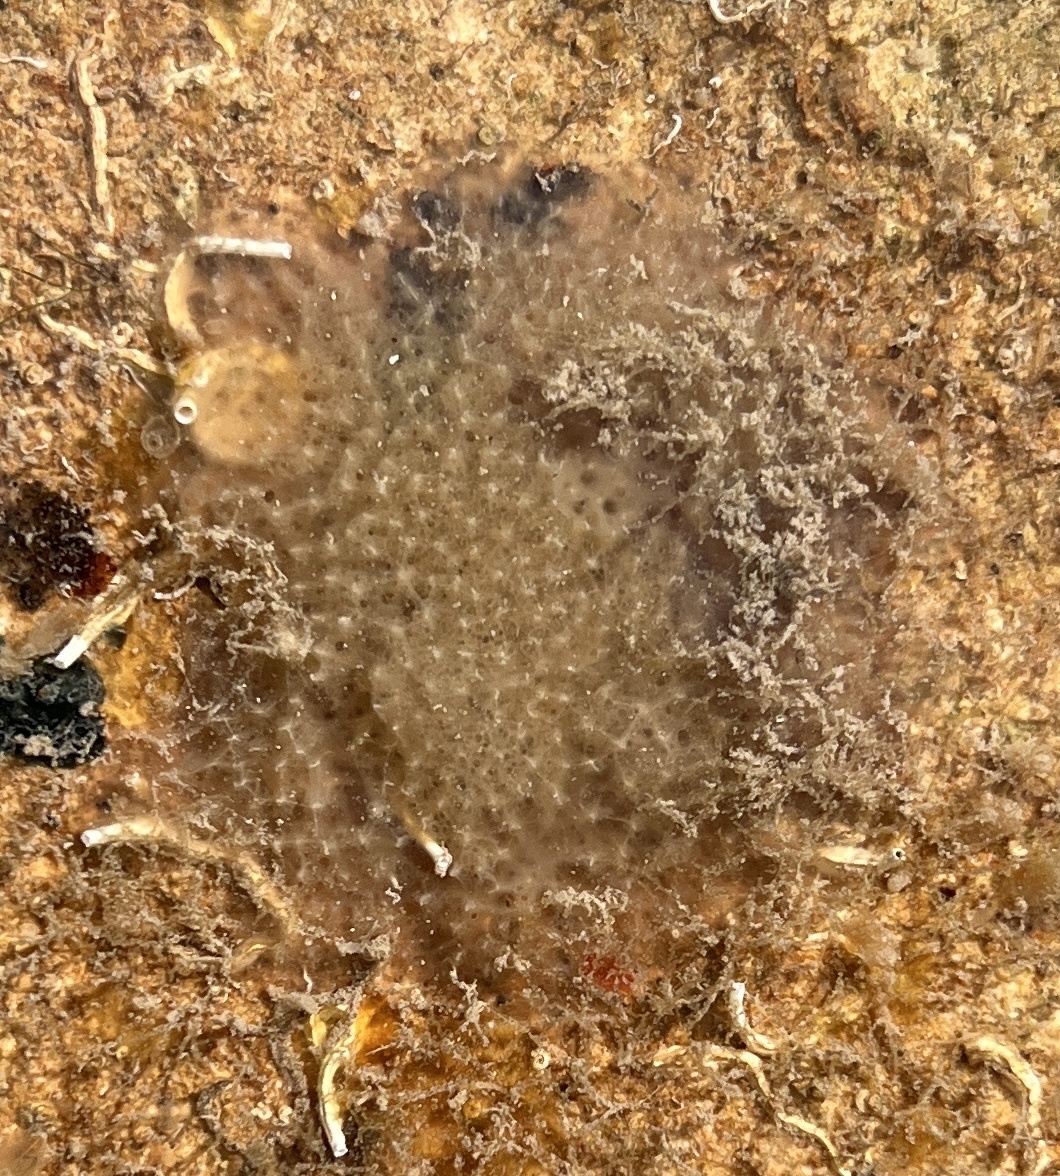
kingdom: Animalia
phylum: Porifera
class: Demospongiae
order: Dictyoceratida
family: Dysideidae
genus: Dysidea
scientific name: Dysidea etheria
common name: Heavenly sponge
